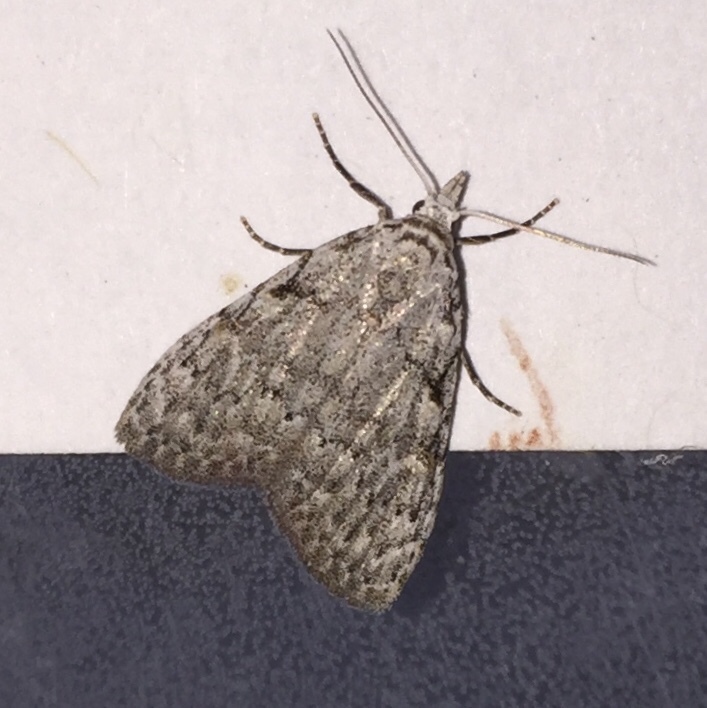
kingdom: Animalia
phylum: Arthropoda
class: Insecta
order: Lepidoptera
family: Nolidae
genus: Nola
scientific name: Nola clethrae
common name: Sweet pepperbush nola moth
